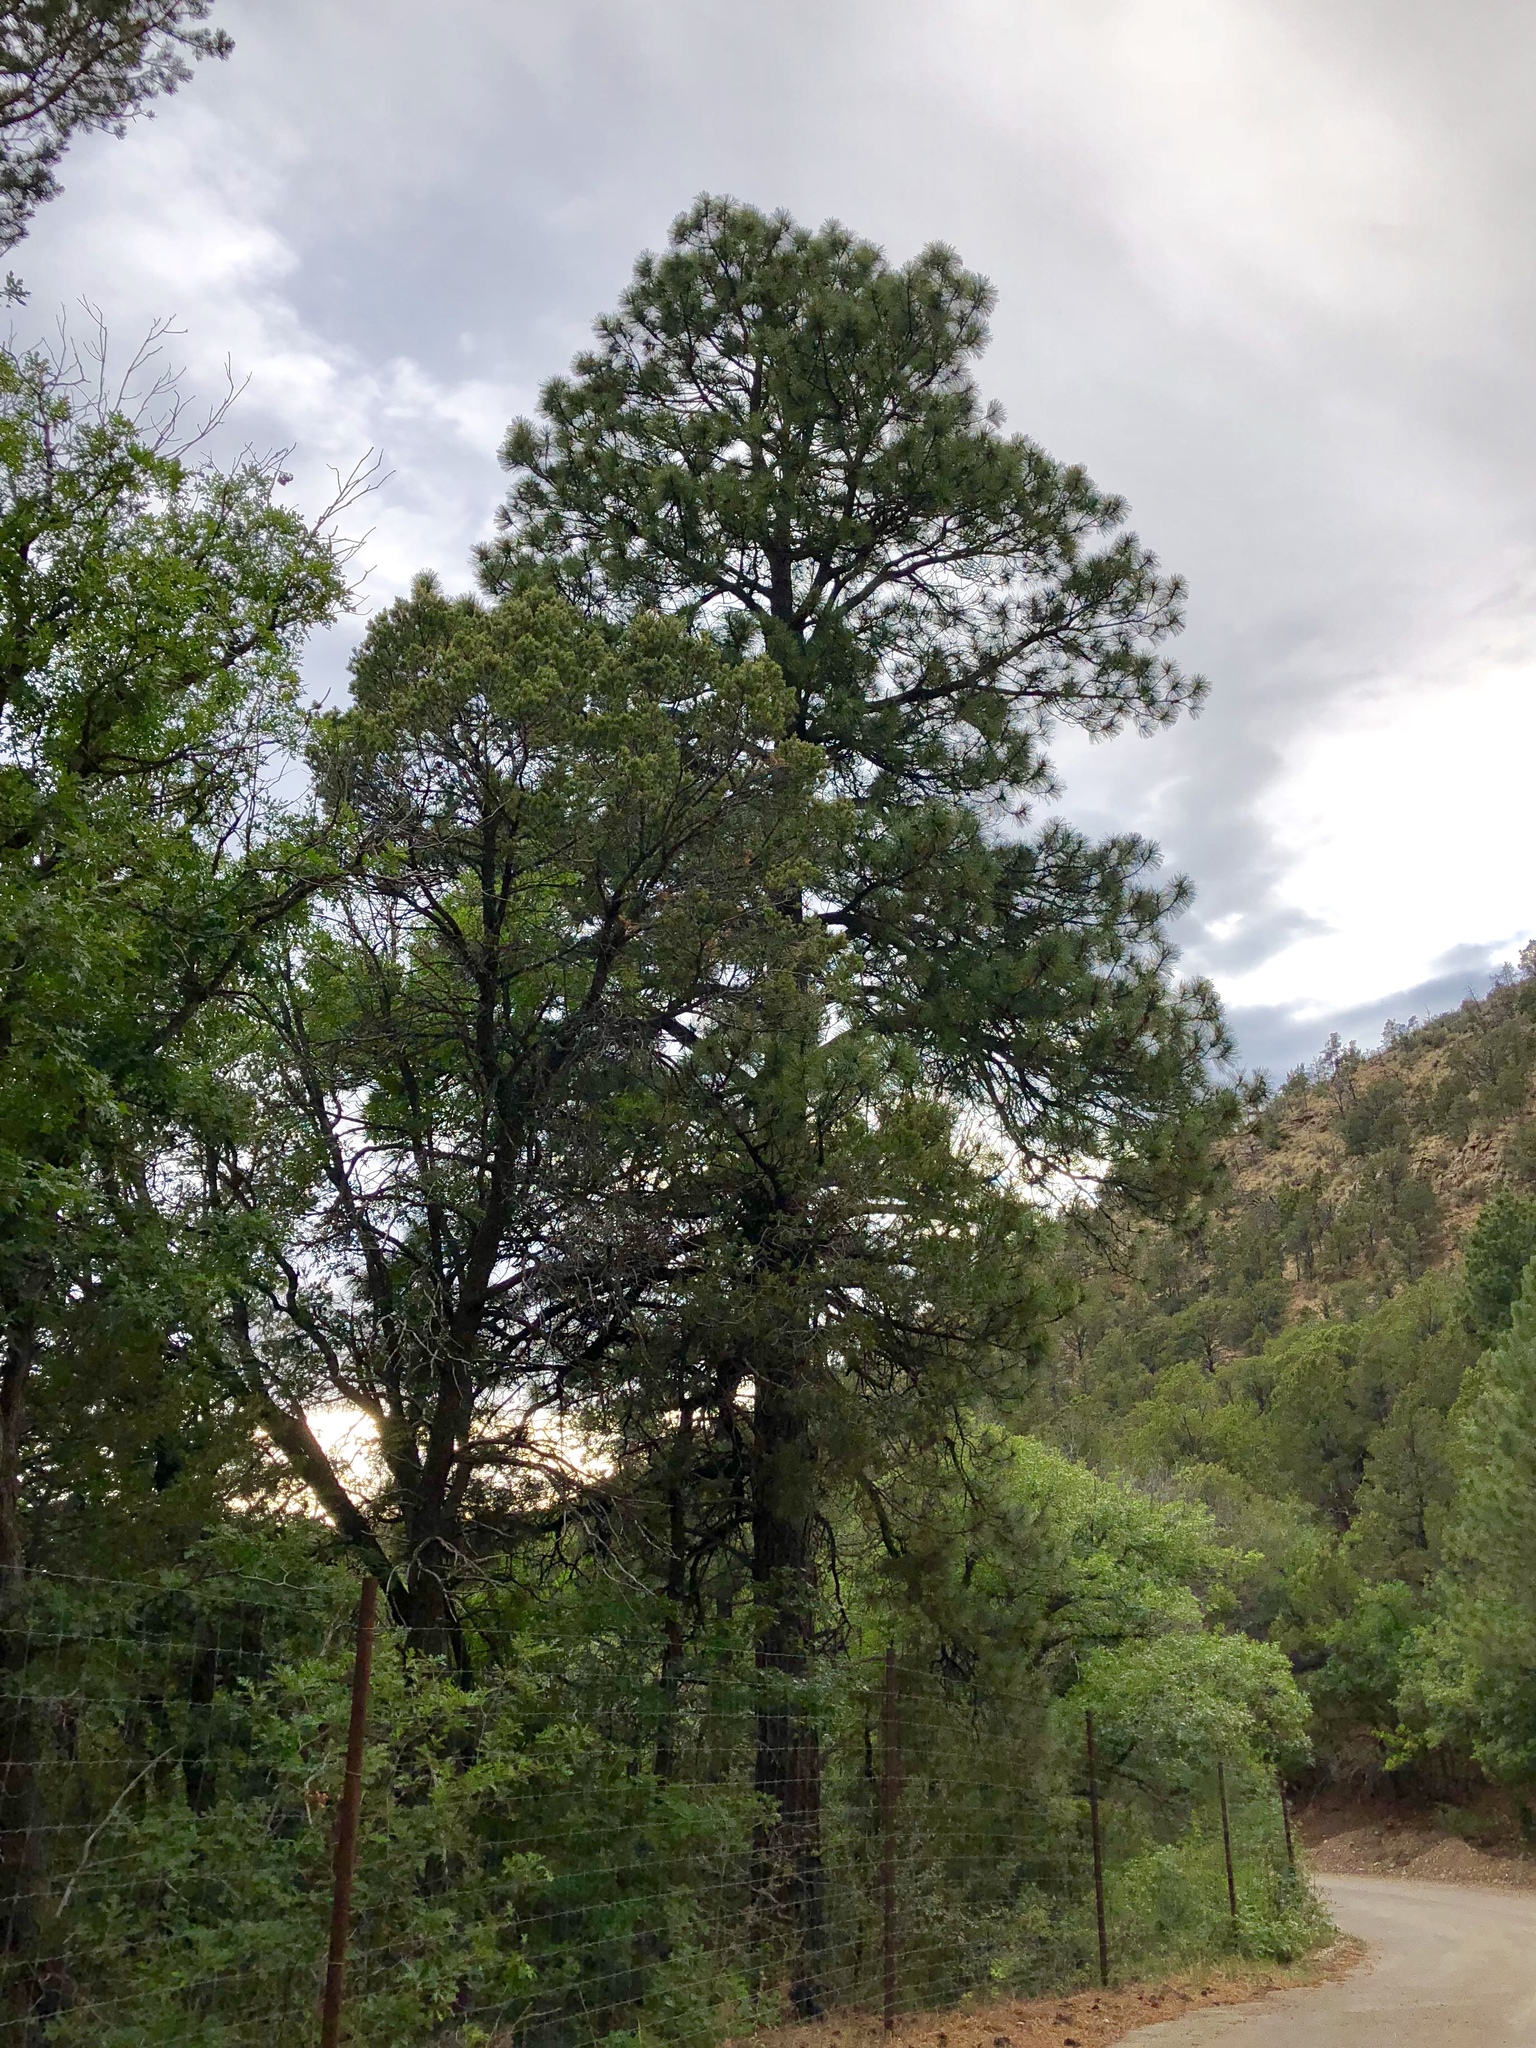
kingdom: Plantae
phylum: Tracheophyta
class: Pinopsida
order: Pinales
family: Pinaceae
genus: Pinus
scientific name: Pinus ponderosa
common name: Western yellow-pine
